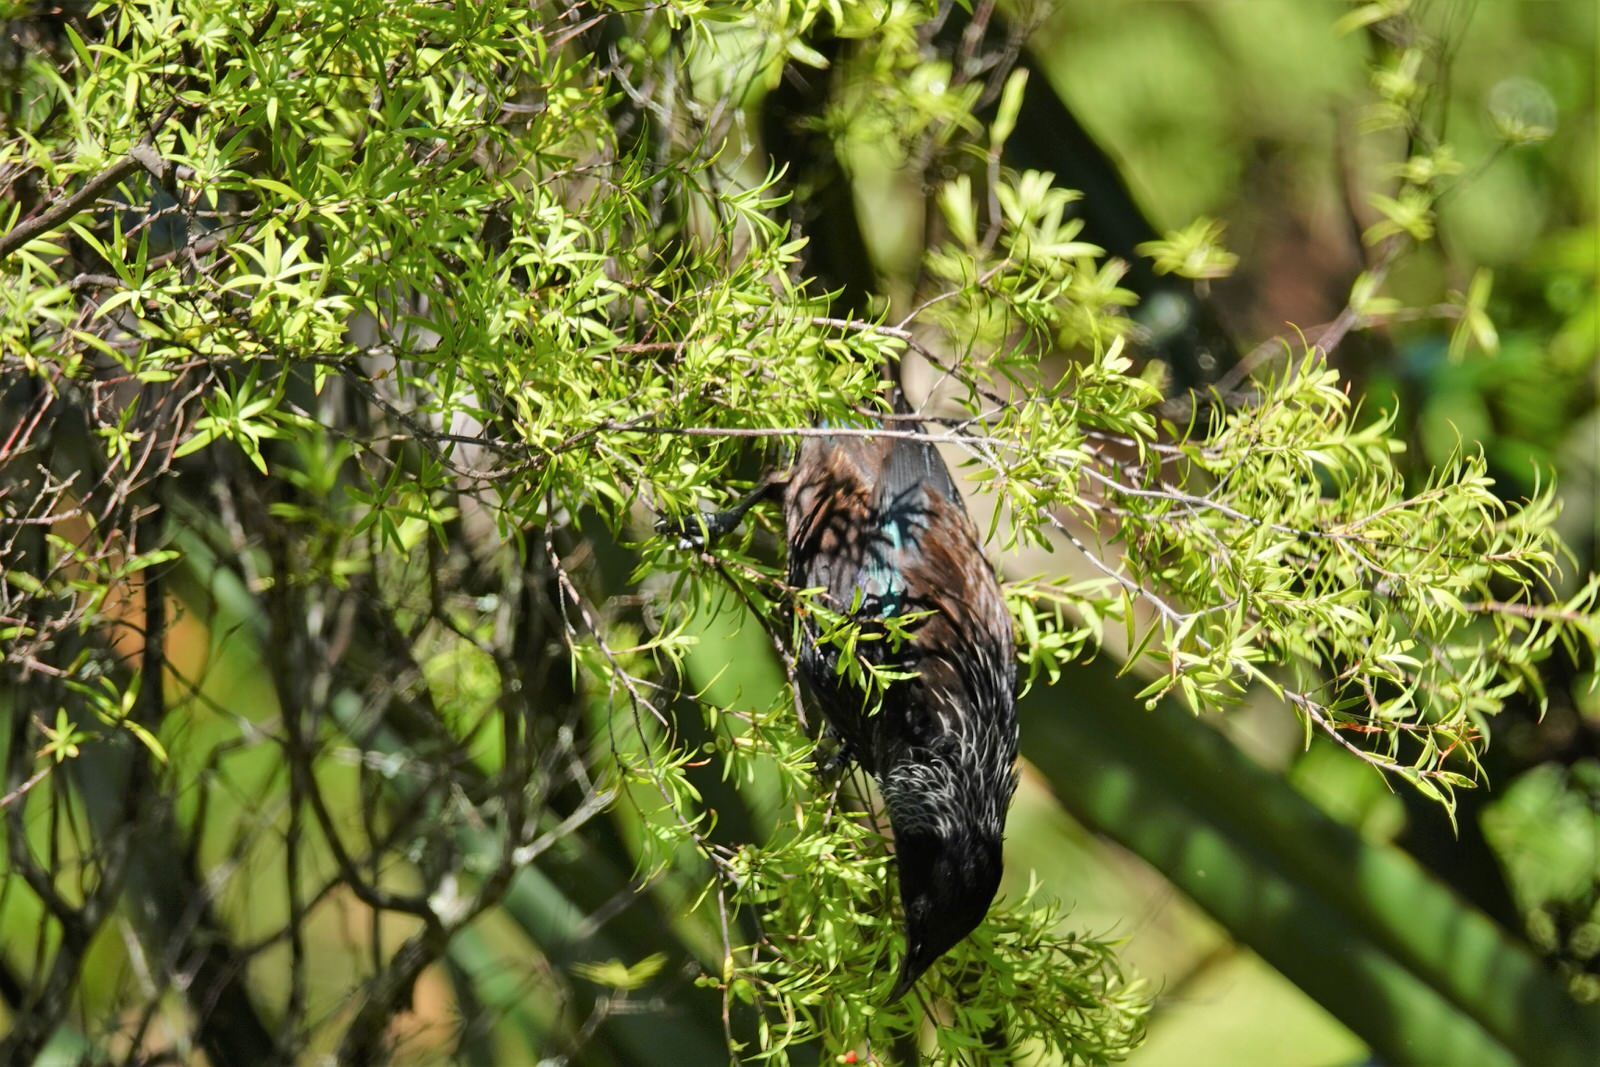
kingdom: Animalia
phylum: Chordata
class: Aves
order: Passeriformes
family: Meliphagidae
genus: Prosthemadera
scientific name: Prosthemadera novaeseelandiae
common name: Tui
